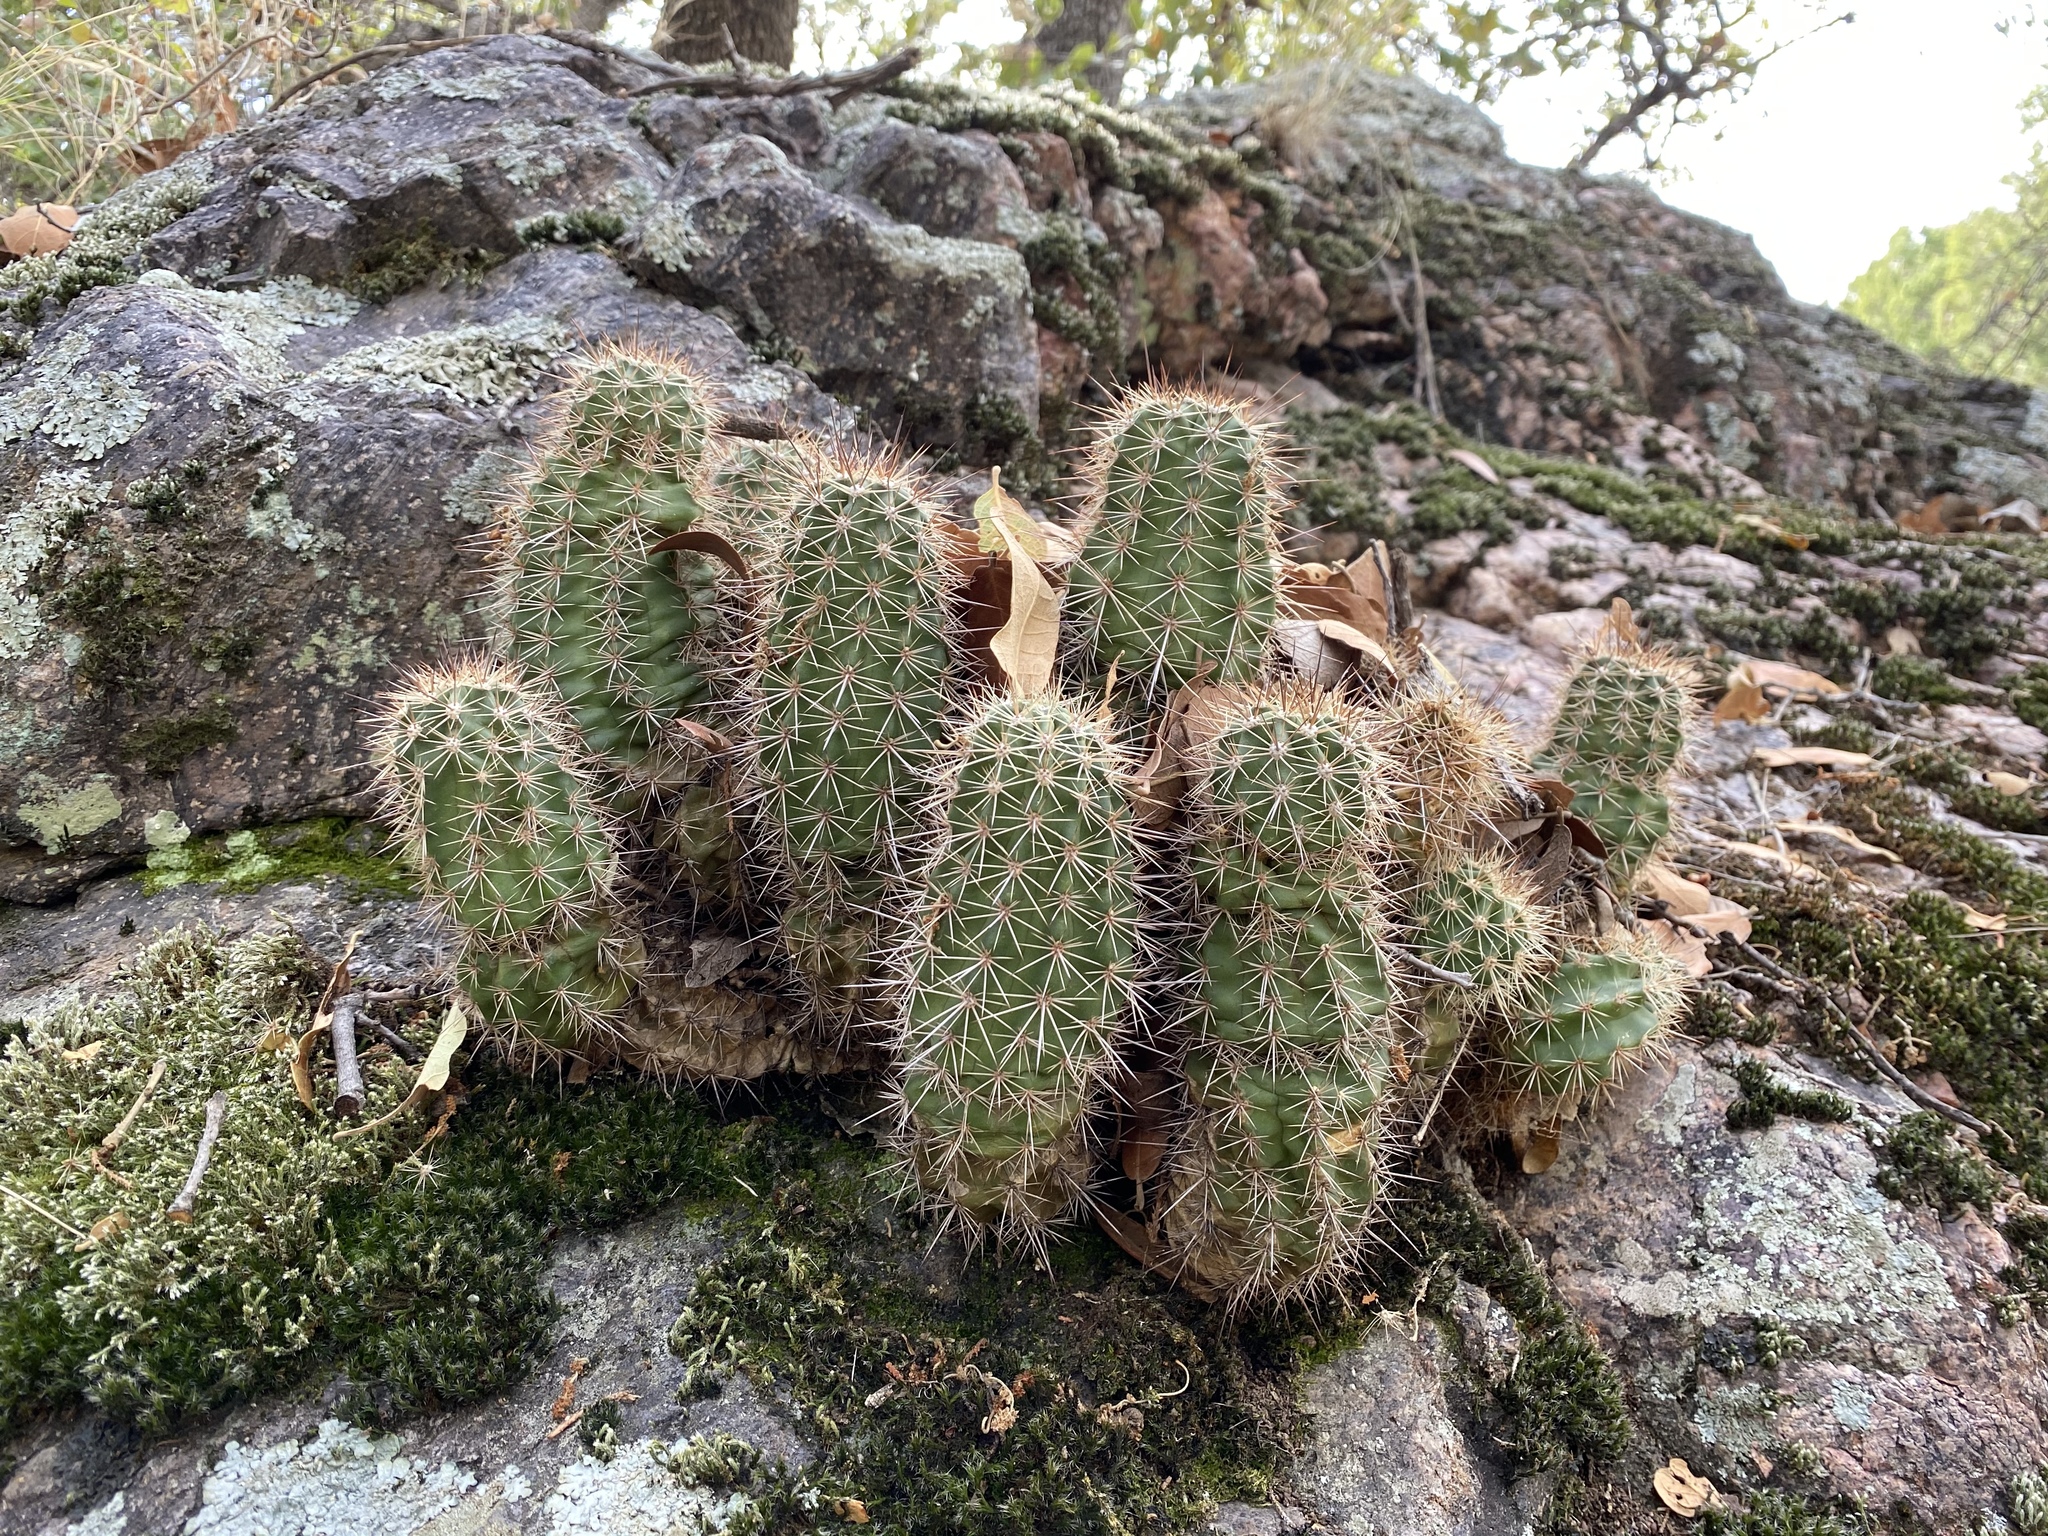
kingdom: Plantae
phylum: Tracheophyta
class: Magnoliopsida
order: Caryophyllales
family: Cactaceae
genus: Echinocereus
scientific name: Echinocereus coccineus
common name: Scarlet hedgehog cactus
